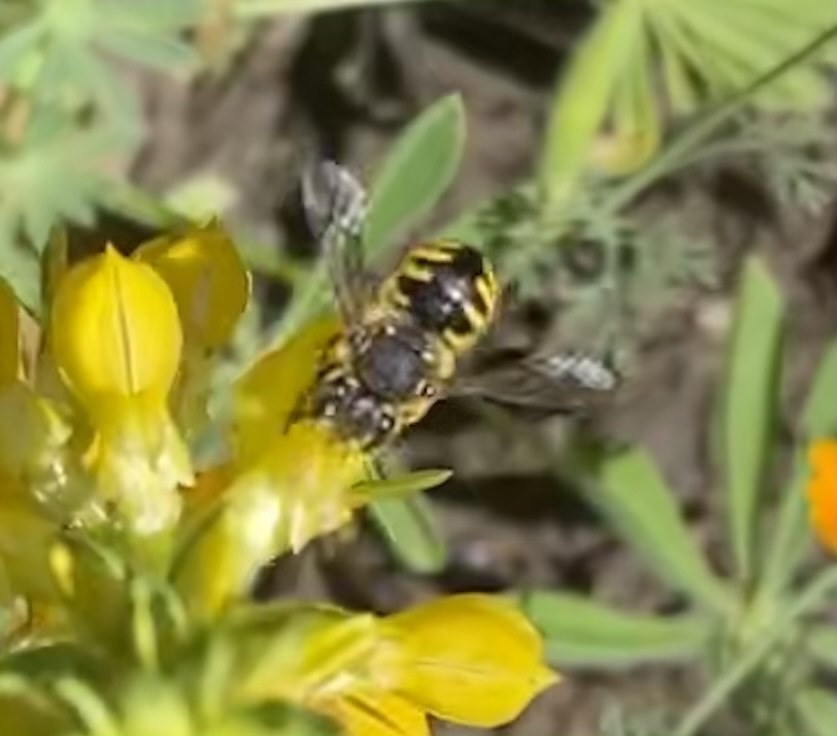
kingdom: Animalia
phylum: Arthropoda
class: Insecta
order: Hymenoptera
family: Megachilidae
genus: Anthidium
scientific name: Anthidium manicatum
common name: Wool carder bee
